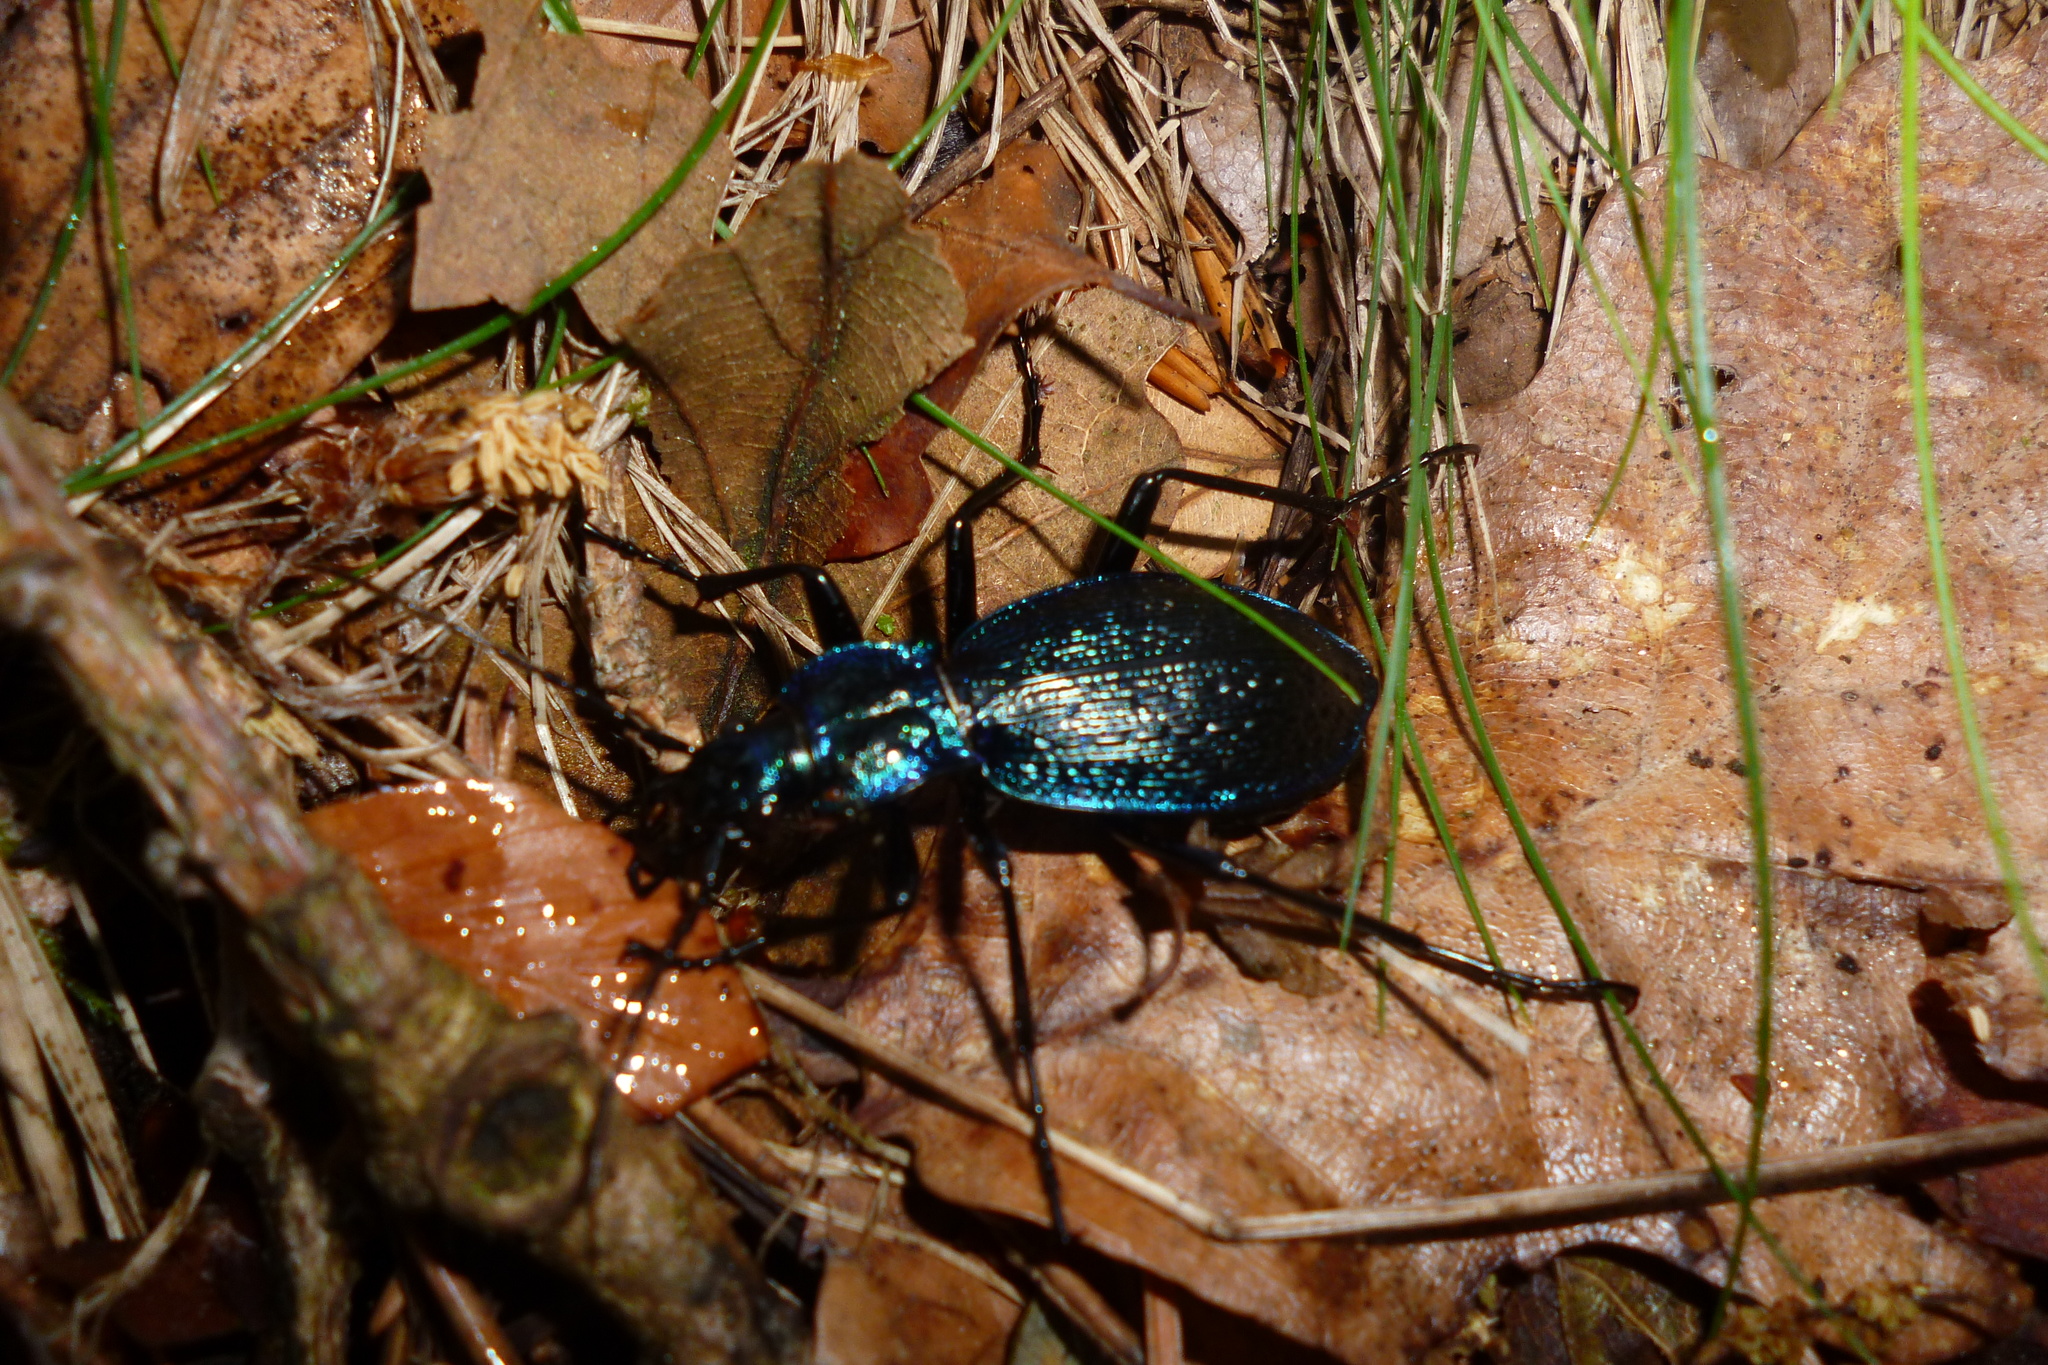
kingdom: Animalia
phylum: Arthropoda
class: Insecta
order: Coleoptera
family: Carabidae
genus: Carabus
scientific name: Carabus intricatus
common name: Blue ground beetle
